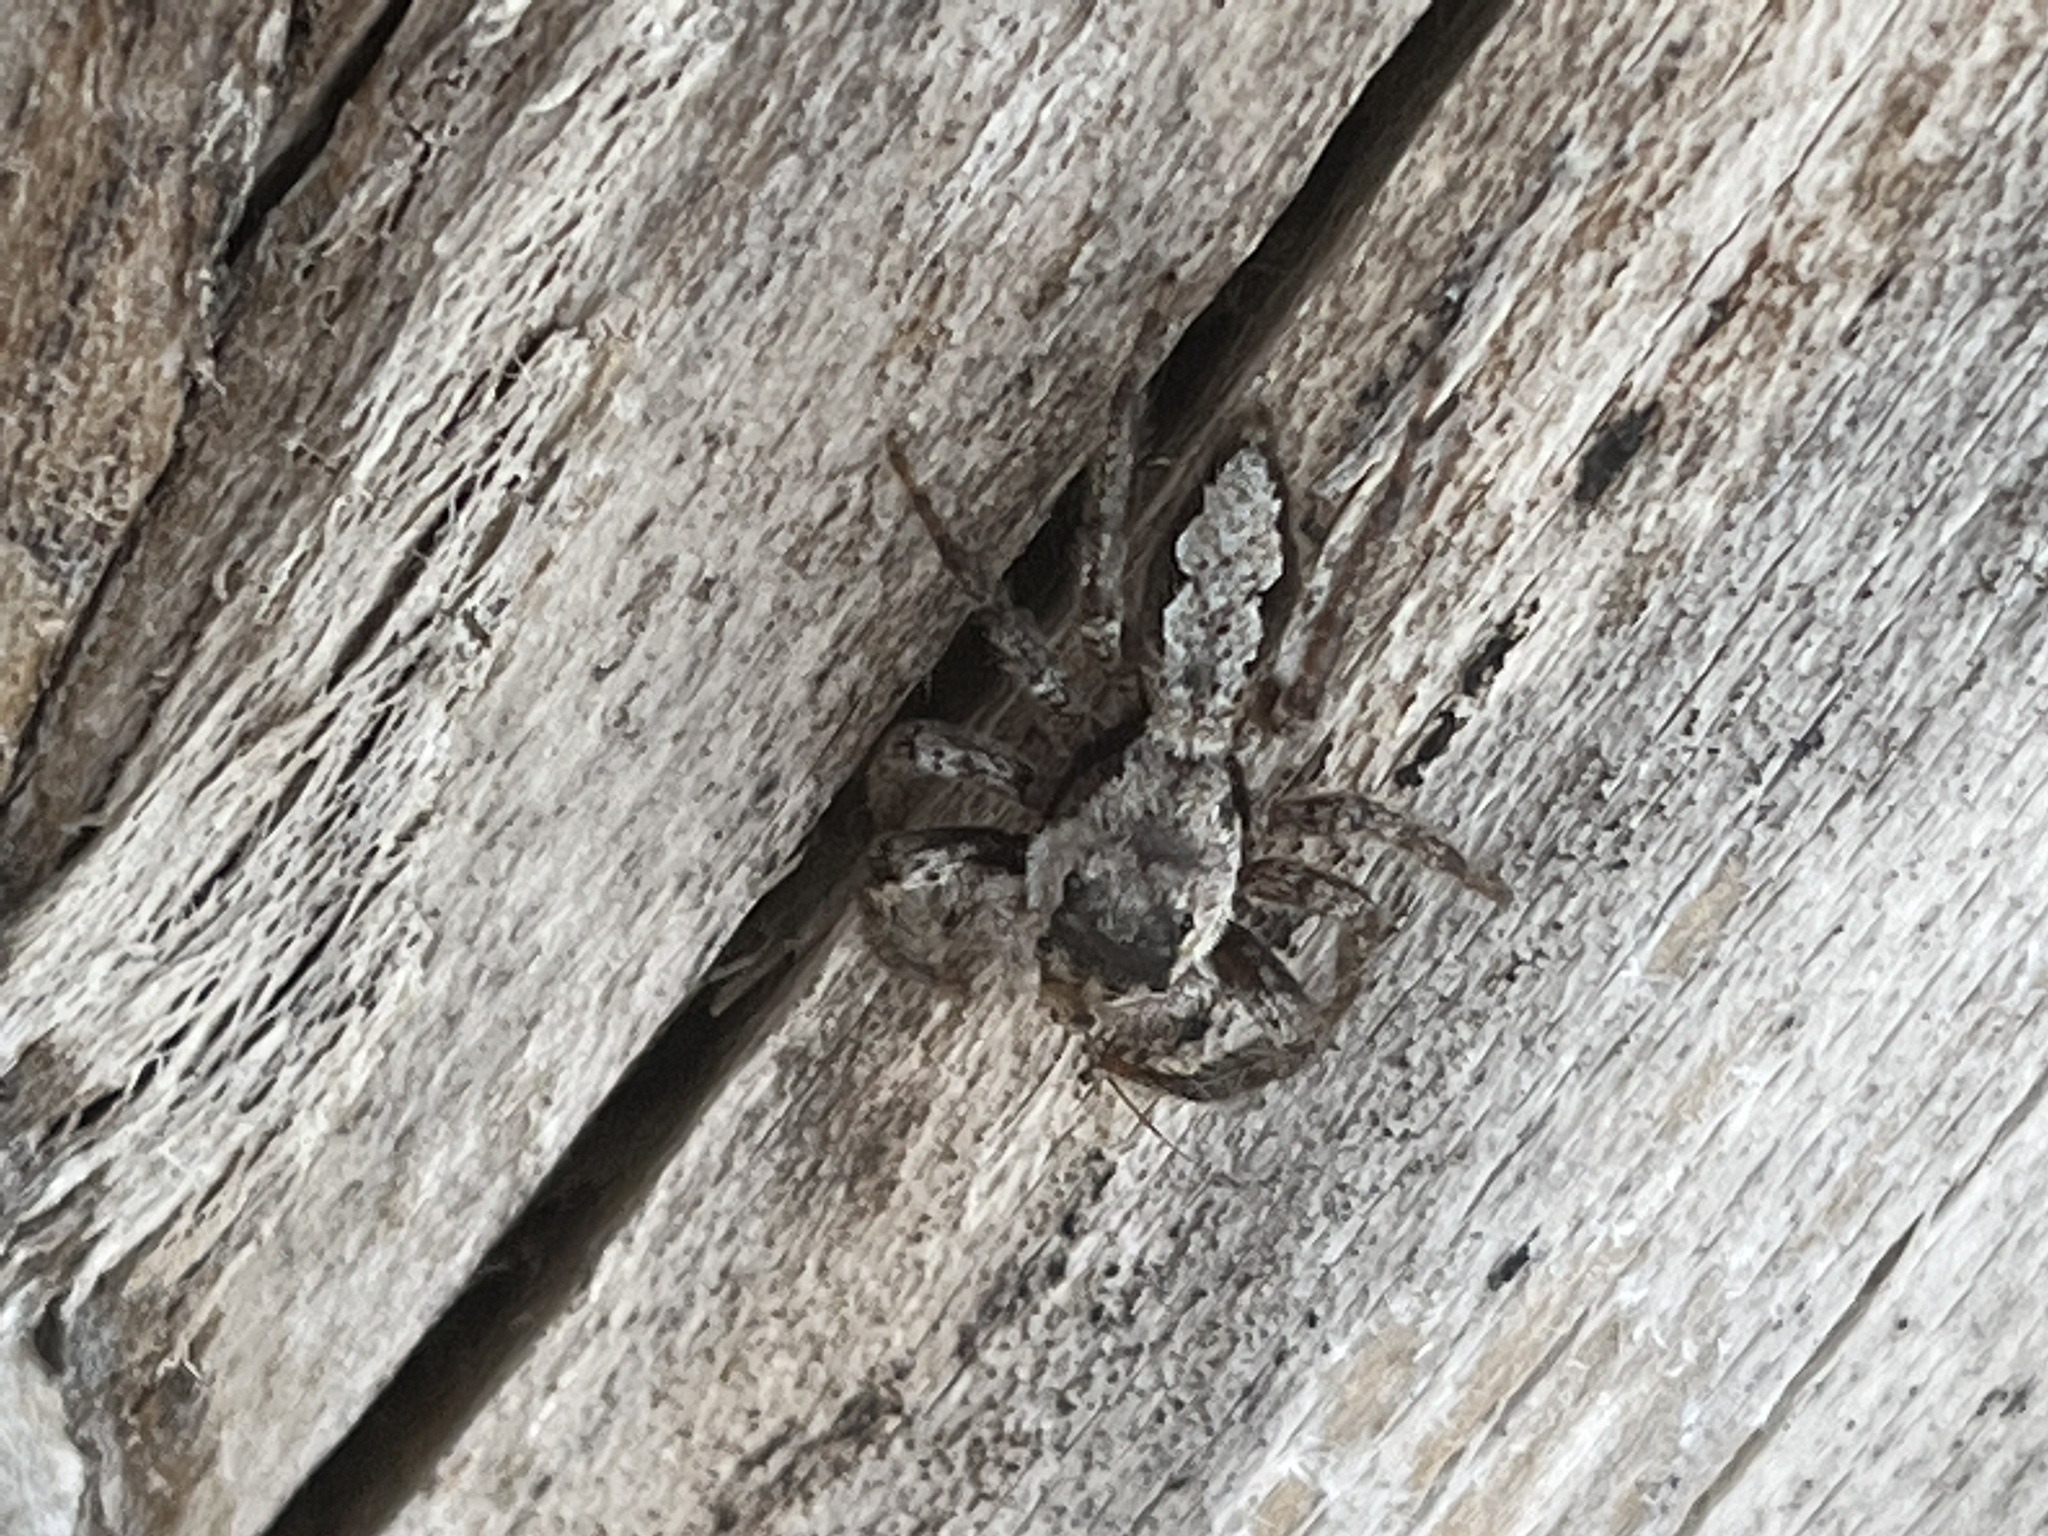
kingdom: Animalia
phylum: Arthropoda
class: Arachnida
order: Araneae
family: Salticidae
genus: Platycryptus
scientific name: Platycryptus undatus
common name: Tan jumping spider
